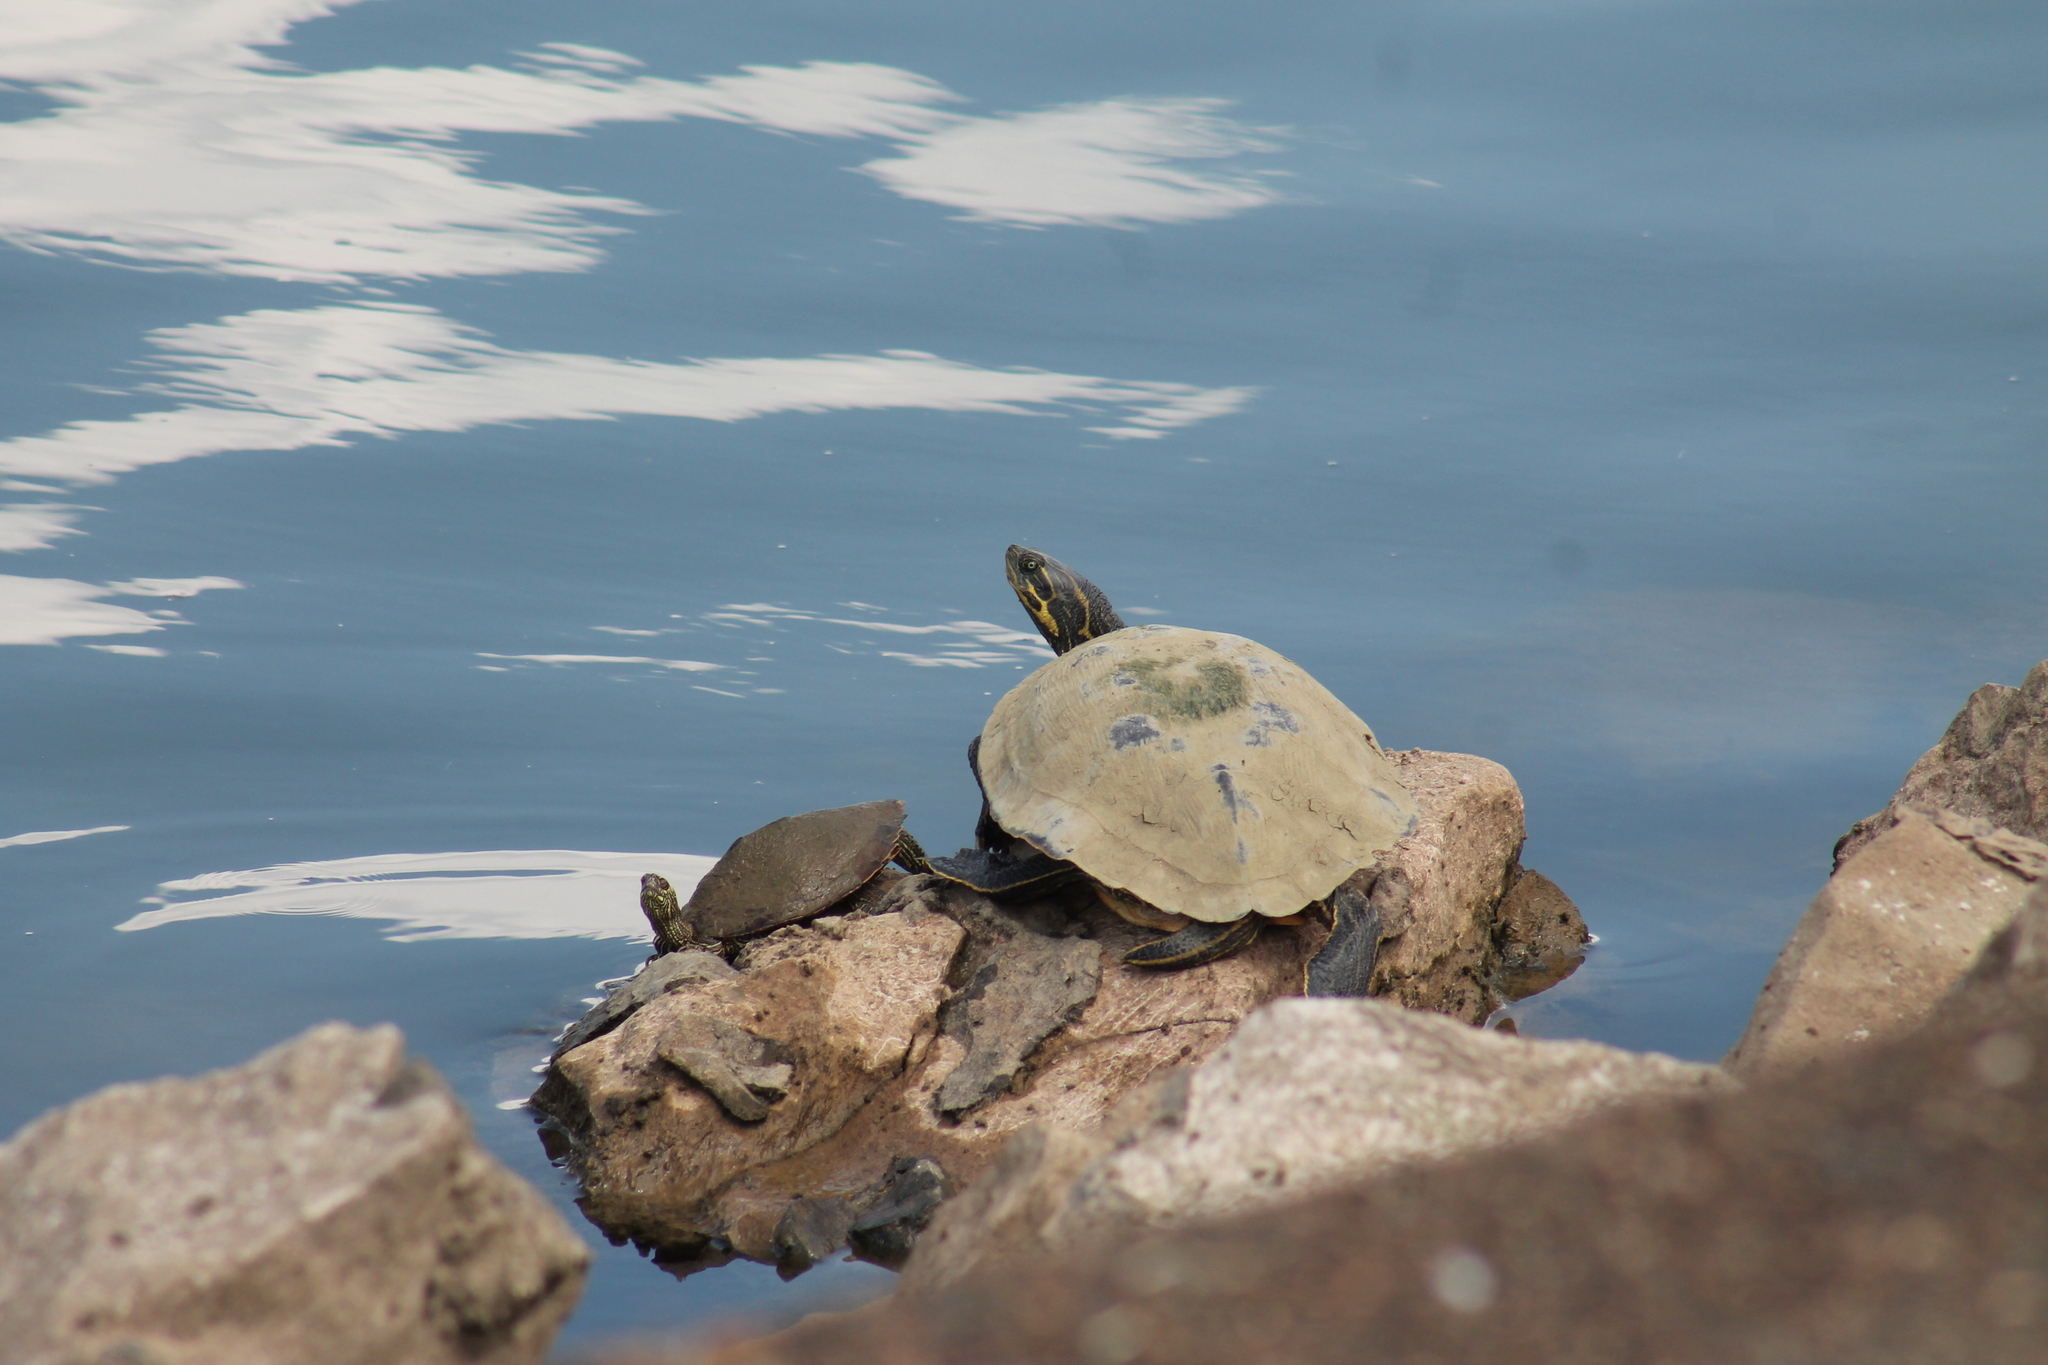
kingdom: Animalia
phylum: Chordata
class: Testudines
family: Emydidae
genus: Pseudemys
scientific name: Pseudemys concinna
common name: Eastern river cooter
